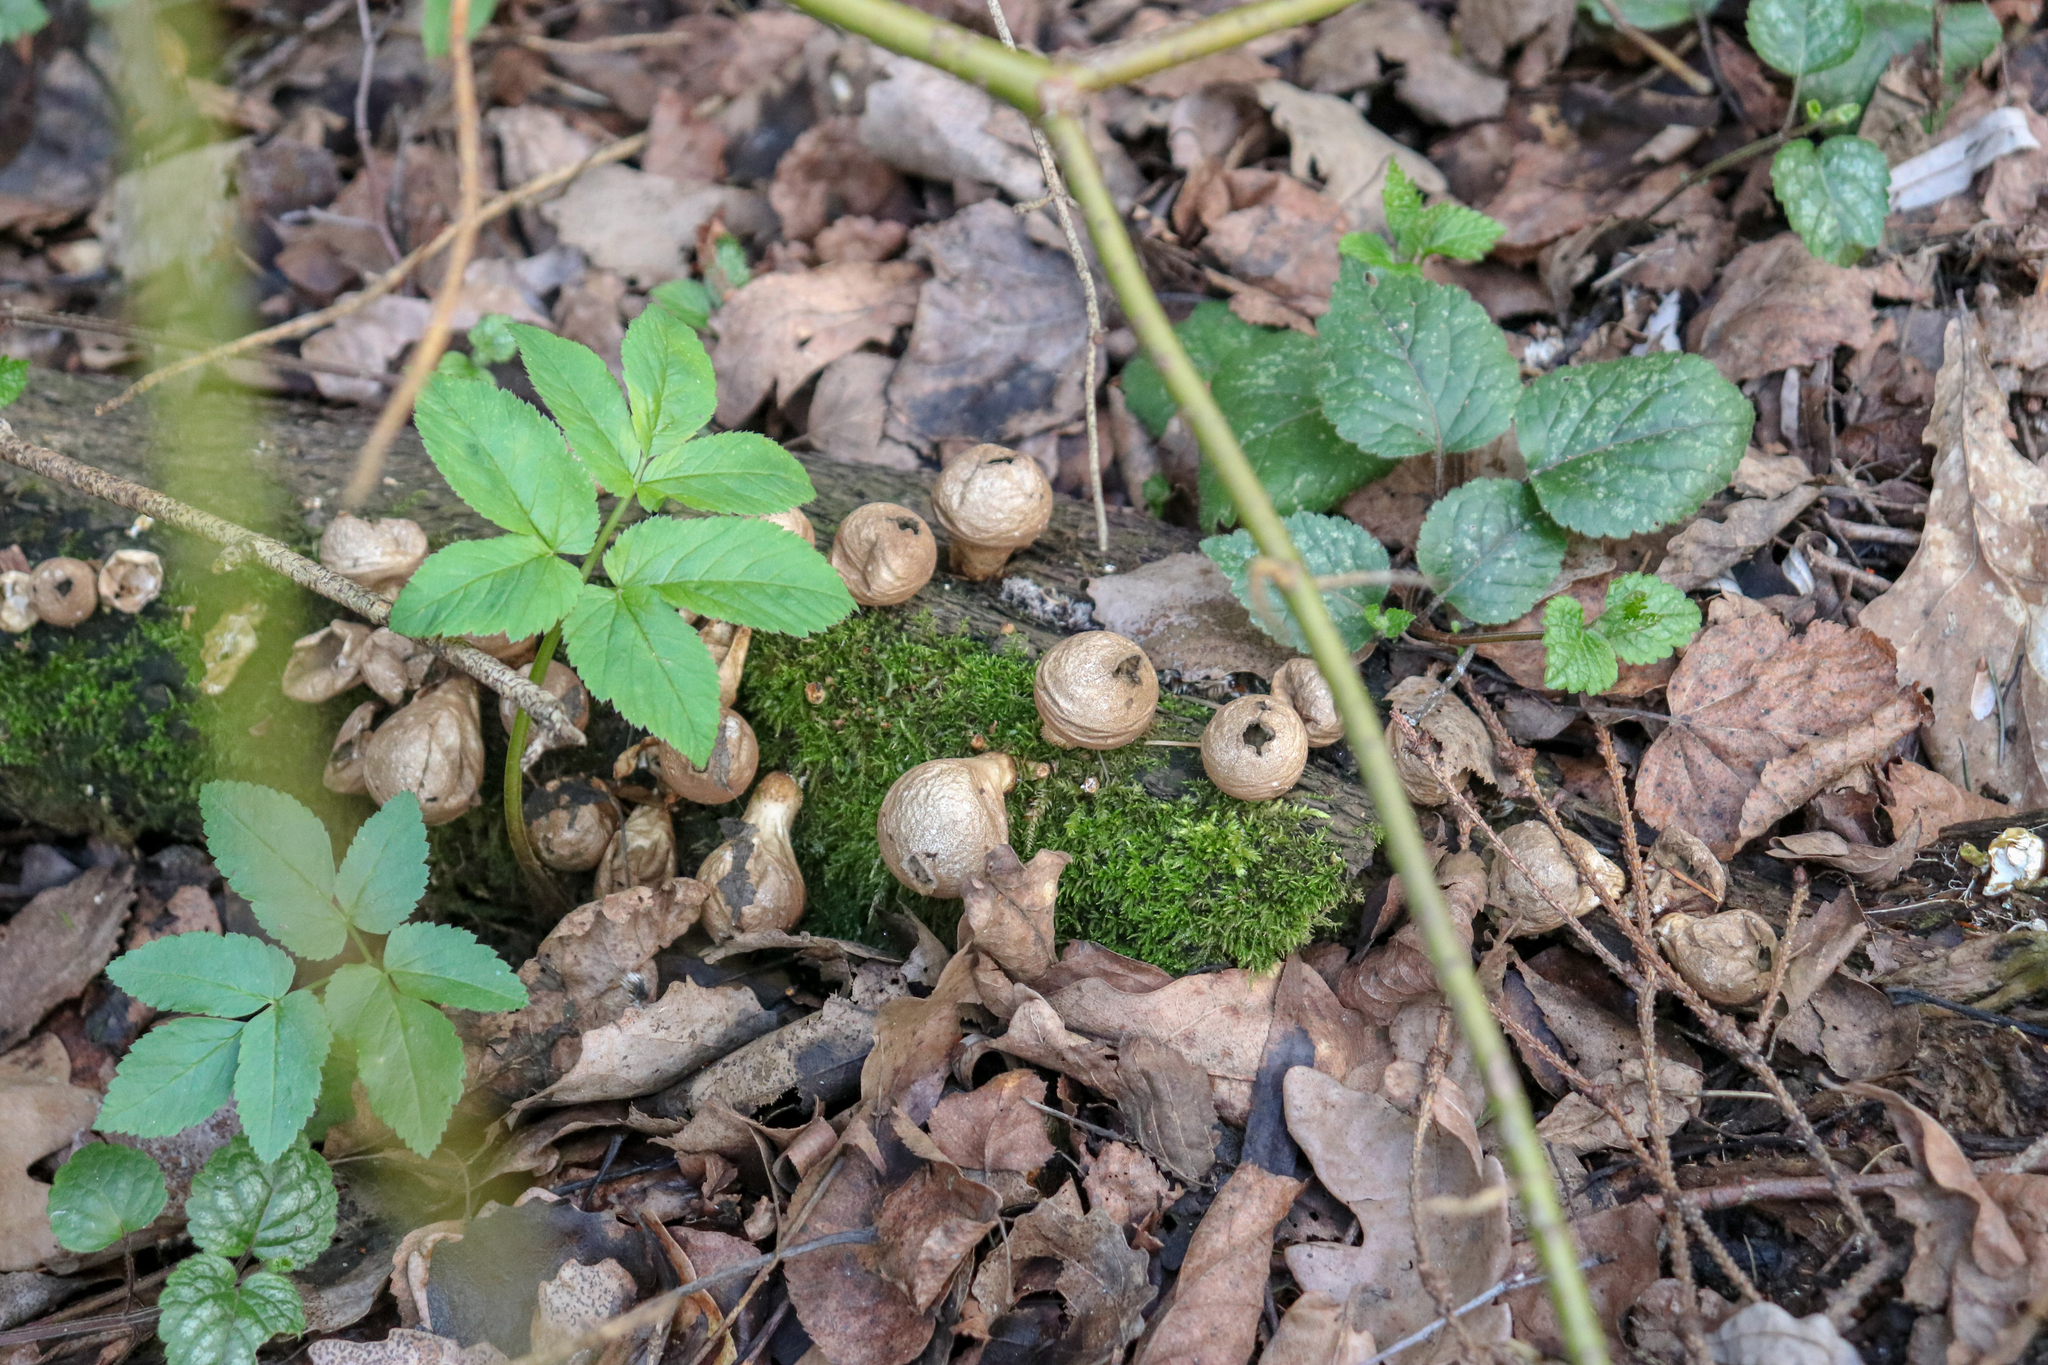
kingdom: Fungi
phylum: Basidiomycota
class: Agaricomycetes
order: Agaricales
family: Lycoperdaceae
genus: Apioperdon
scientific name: Apioperdon pyriforme
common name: Pear-shaped puffball
